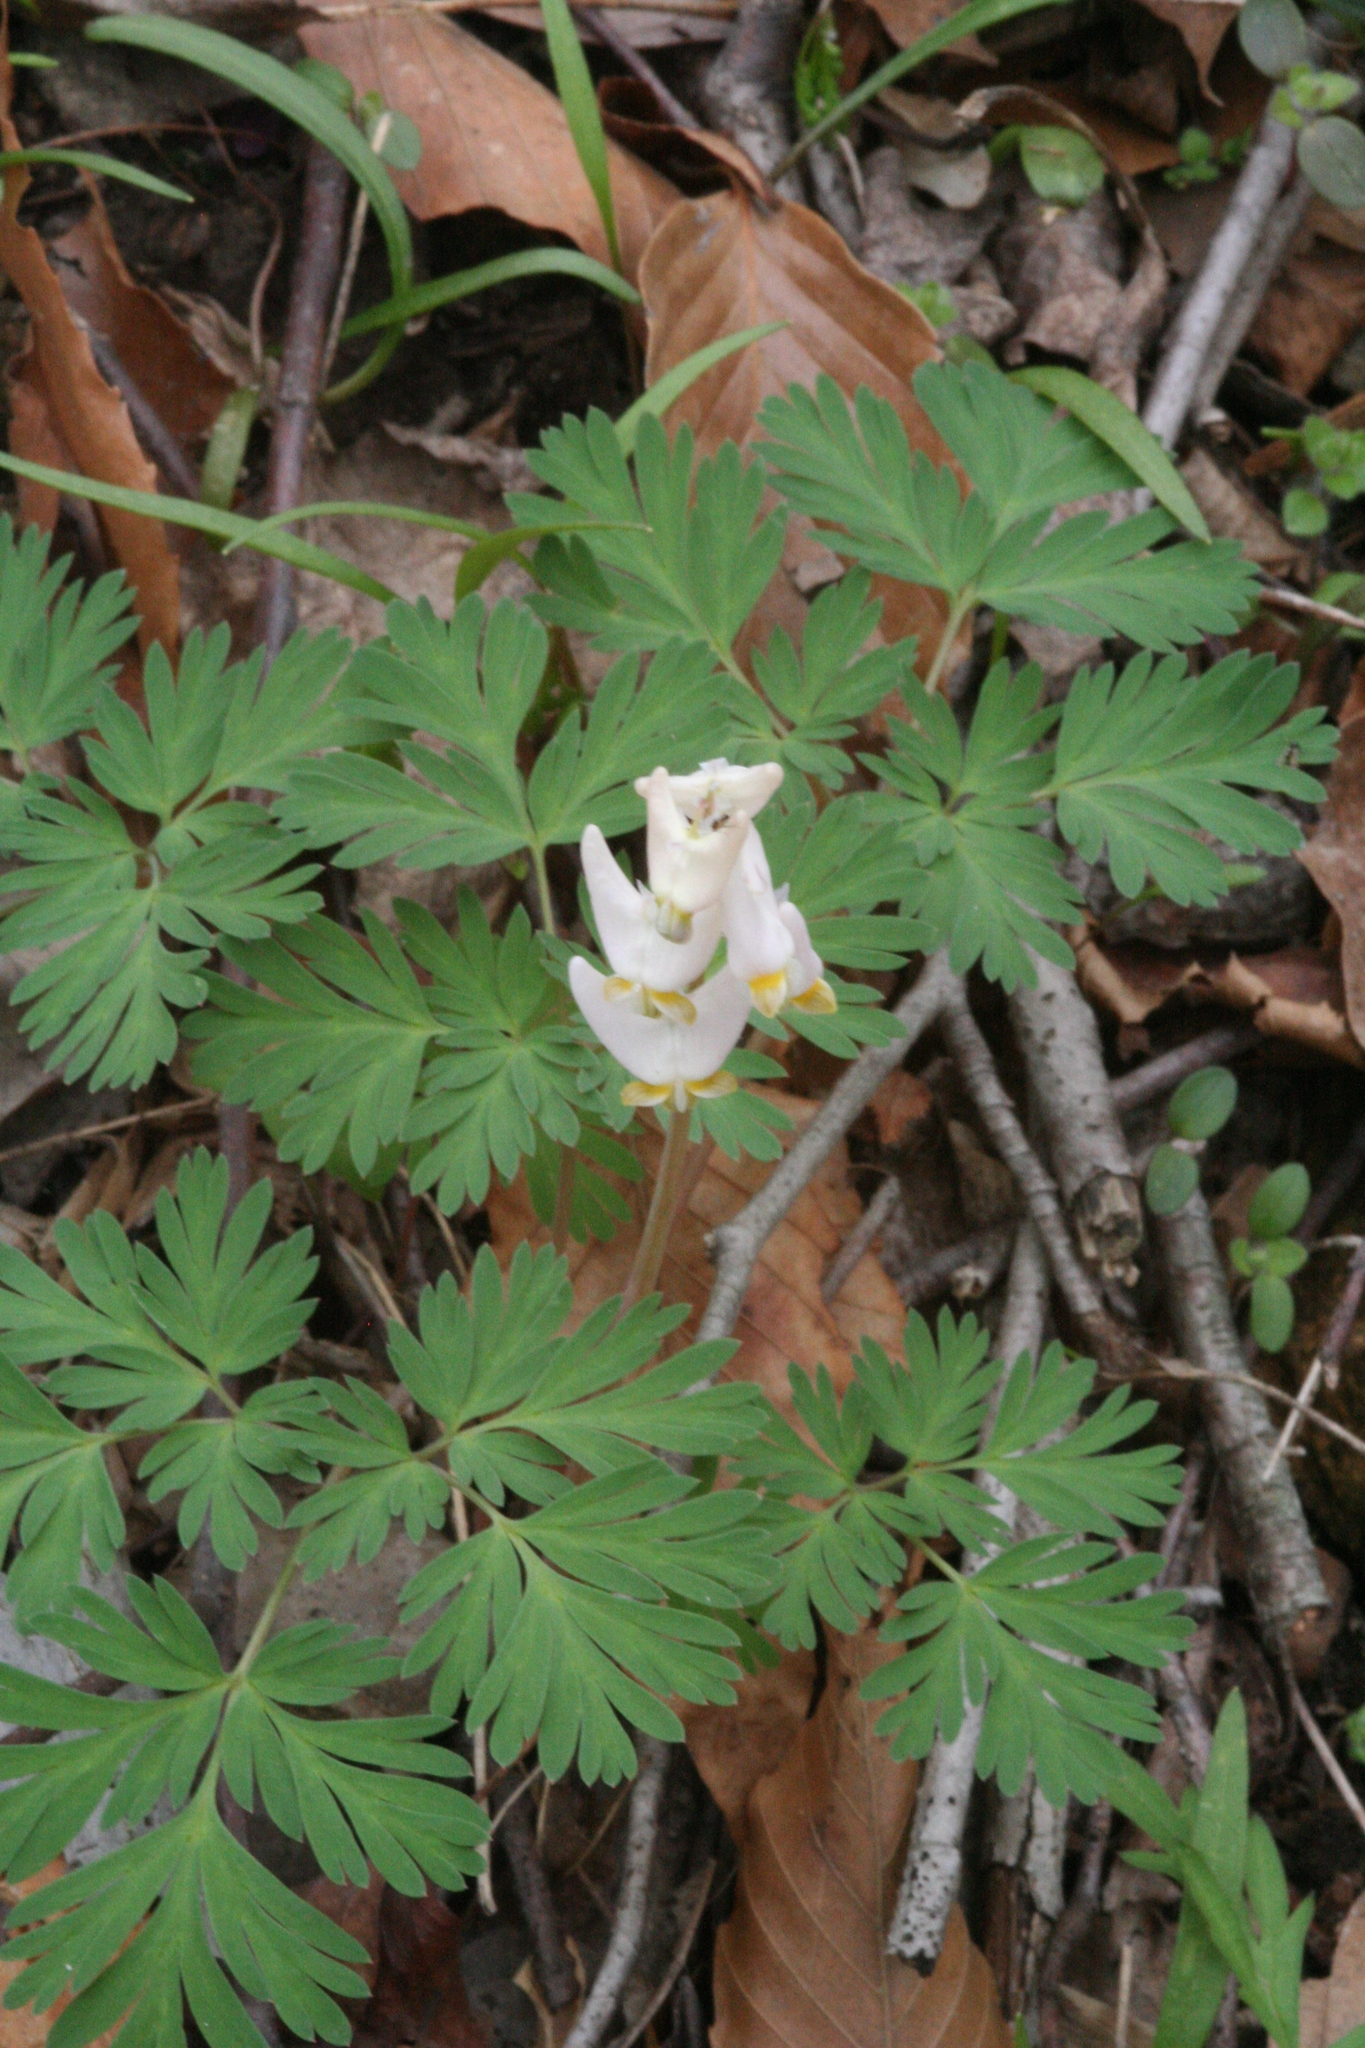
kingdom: Plantae
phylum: Tracheophyta
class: Magnoliopsida
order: Ranunculales
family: Papaveraceae
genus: Dicentra
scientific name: Dicentra cucullaria
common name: Dutchman's breeches
